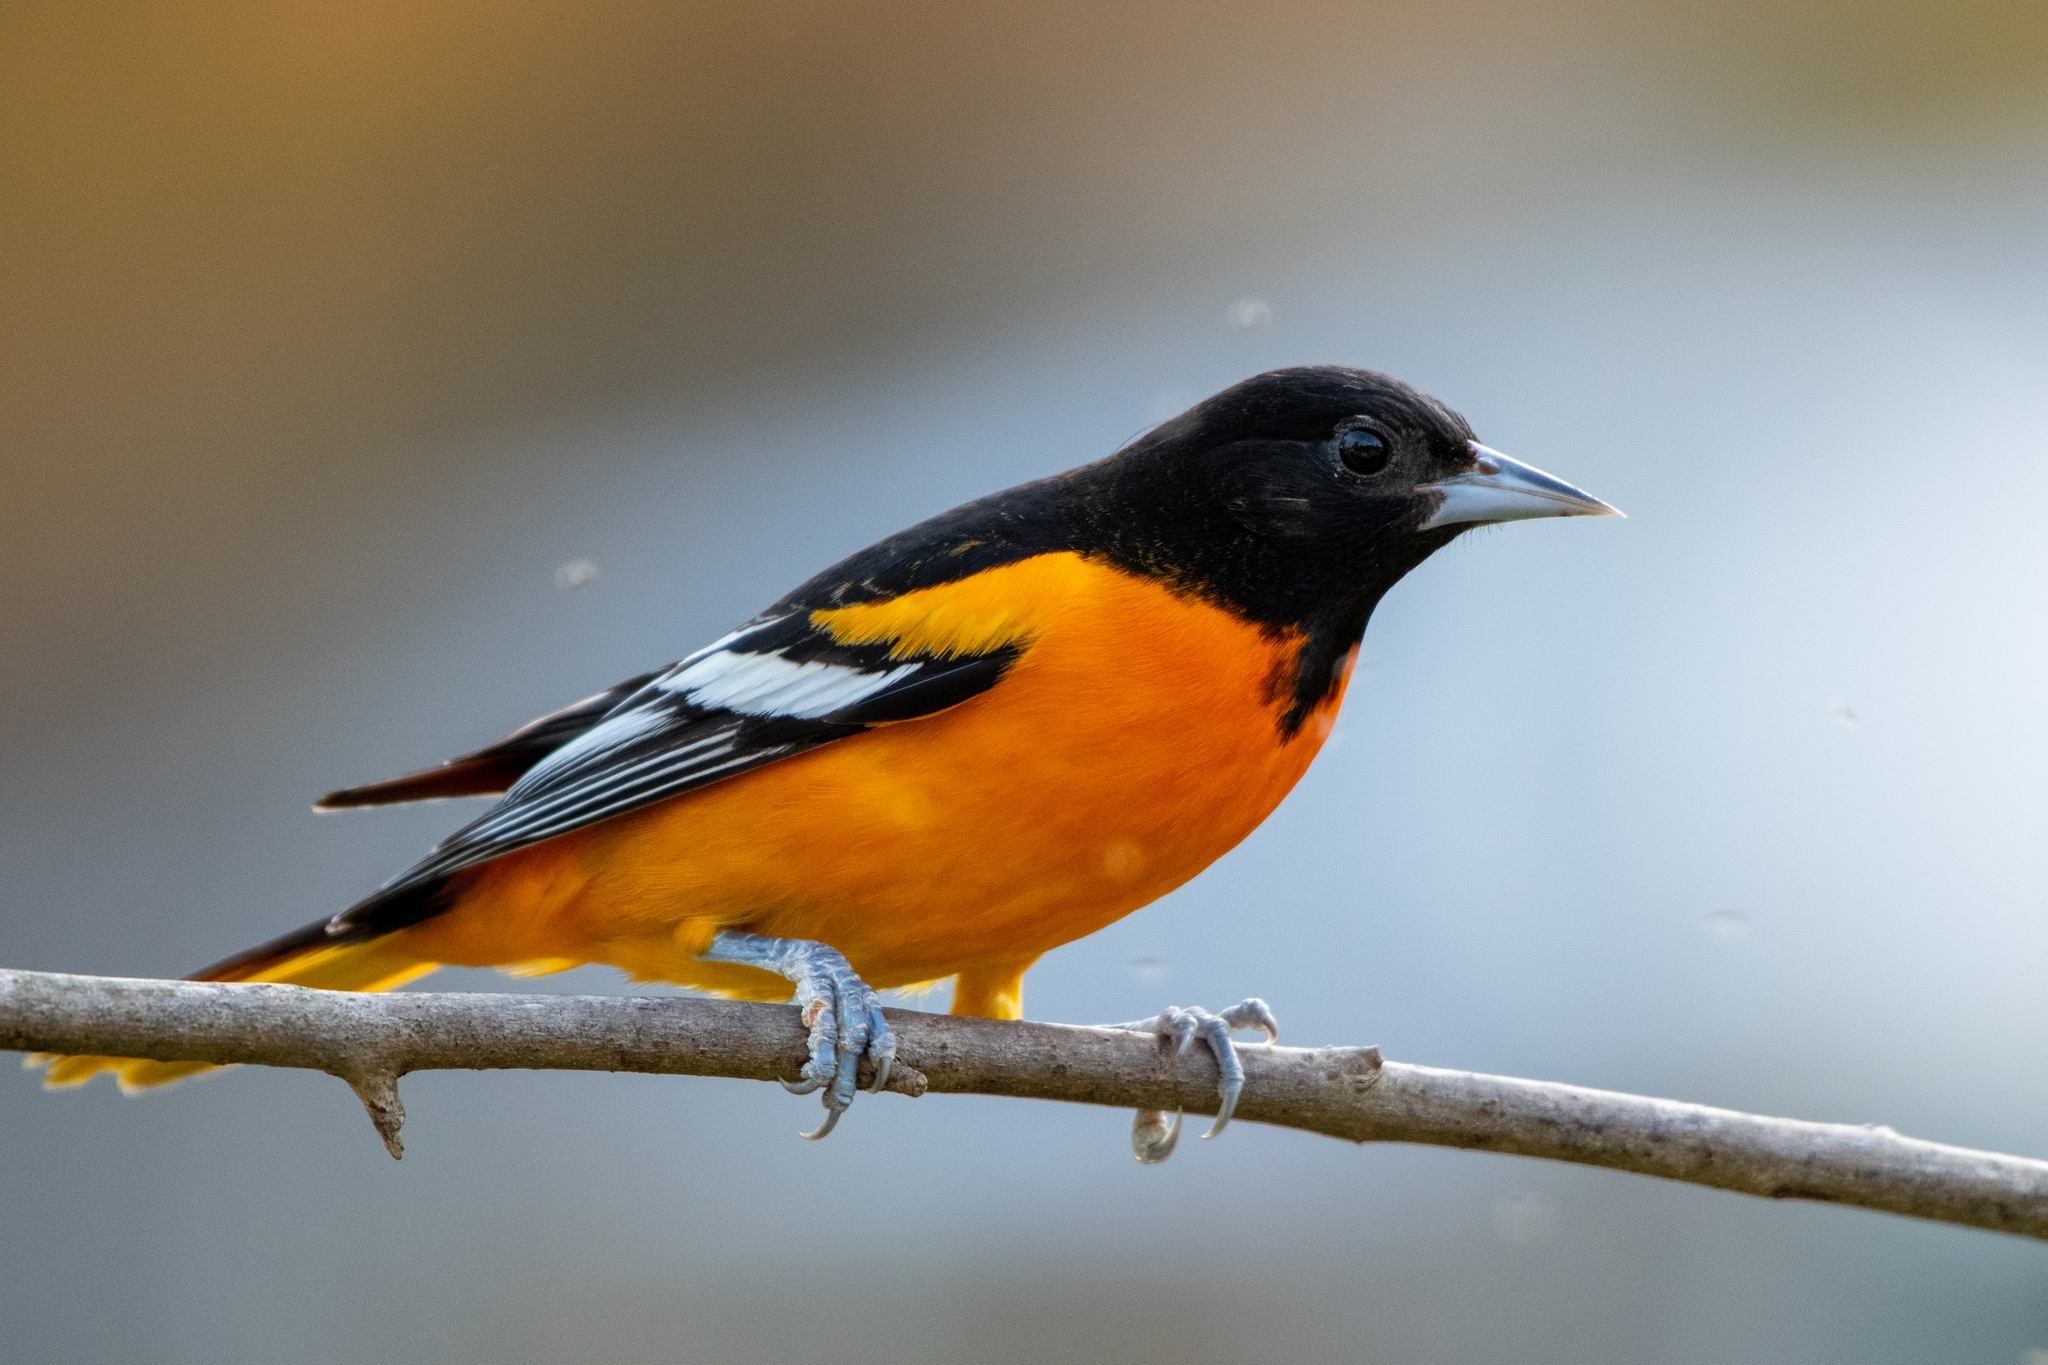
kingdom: Animalia
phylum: Chordata
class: Aves
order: Passeriformes
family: Icteridae
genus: Icterus
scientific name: Icterus galbula
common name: Baltimore oriole
